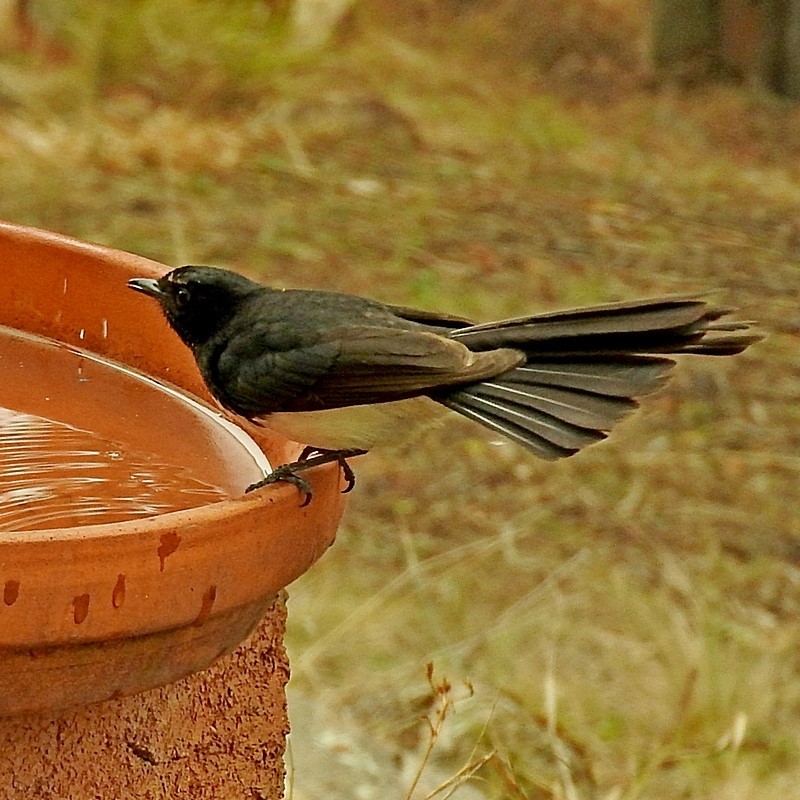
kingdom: Animalia
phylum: Chordata
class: Aves
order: Passeriformes
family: Rhipiduridae
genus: Rhipidura
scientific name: Rhipidura leucophrys
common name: Willie wagtail
